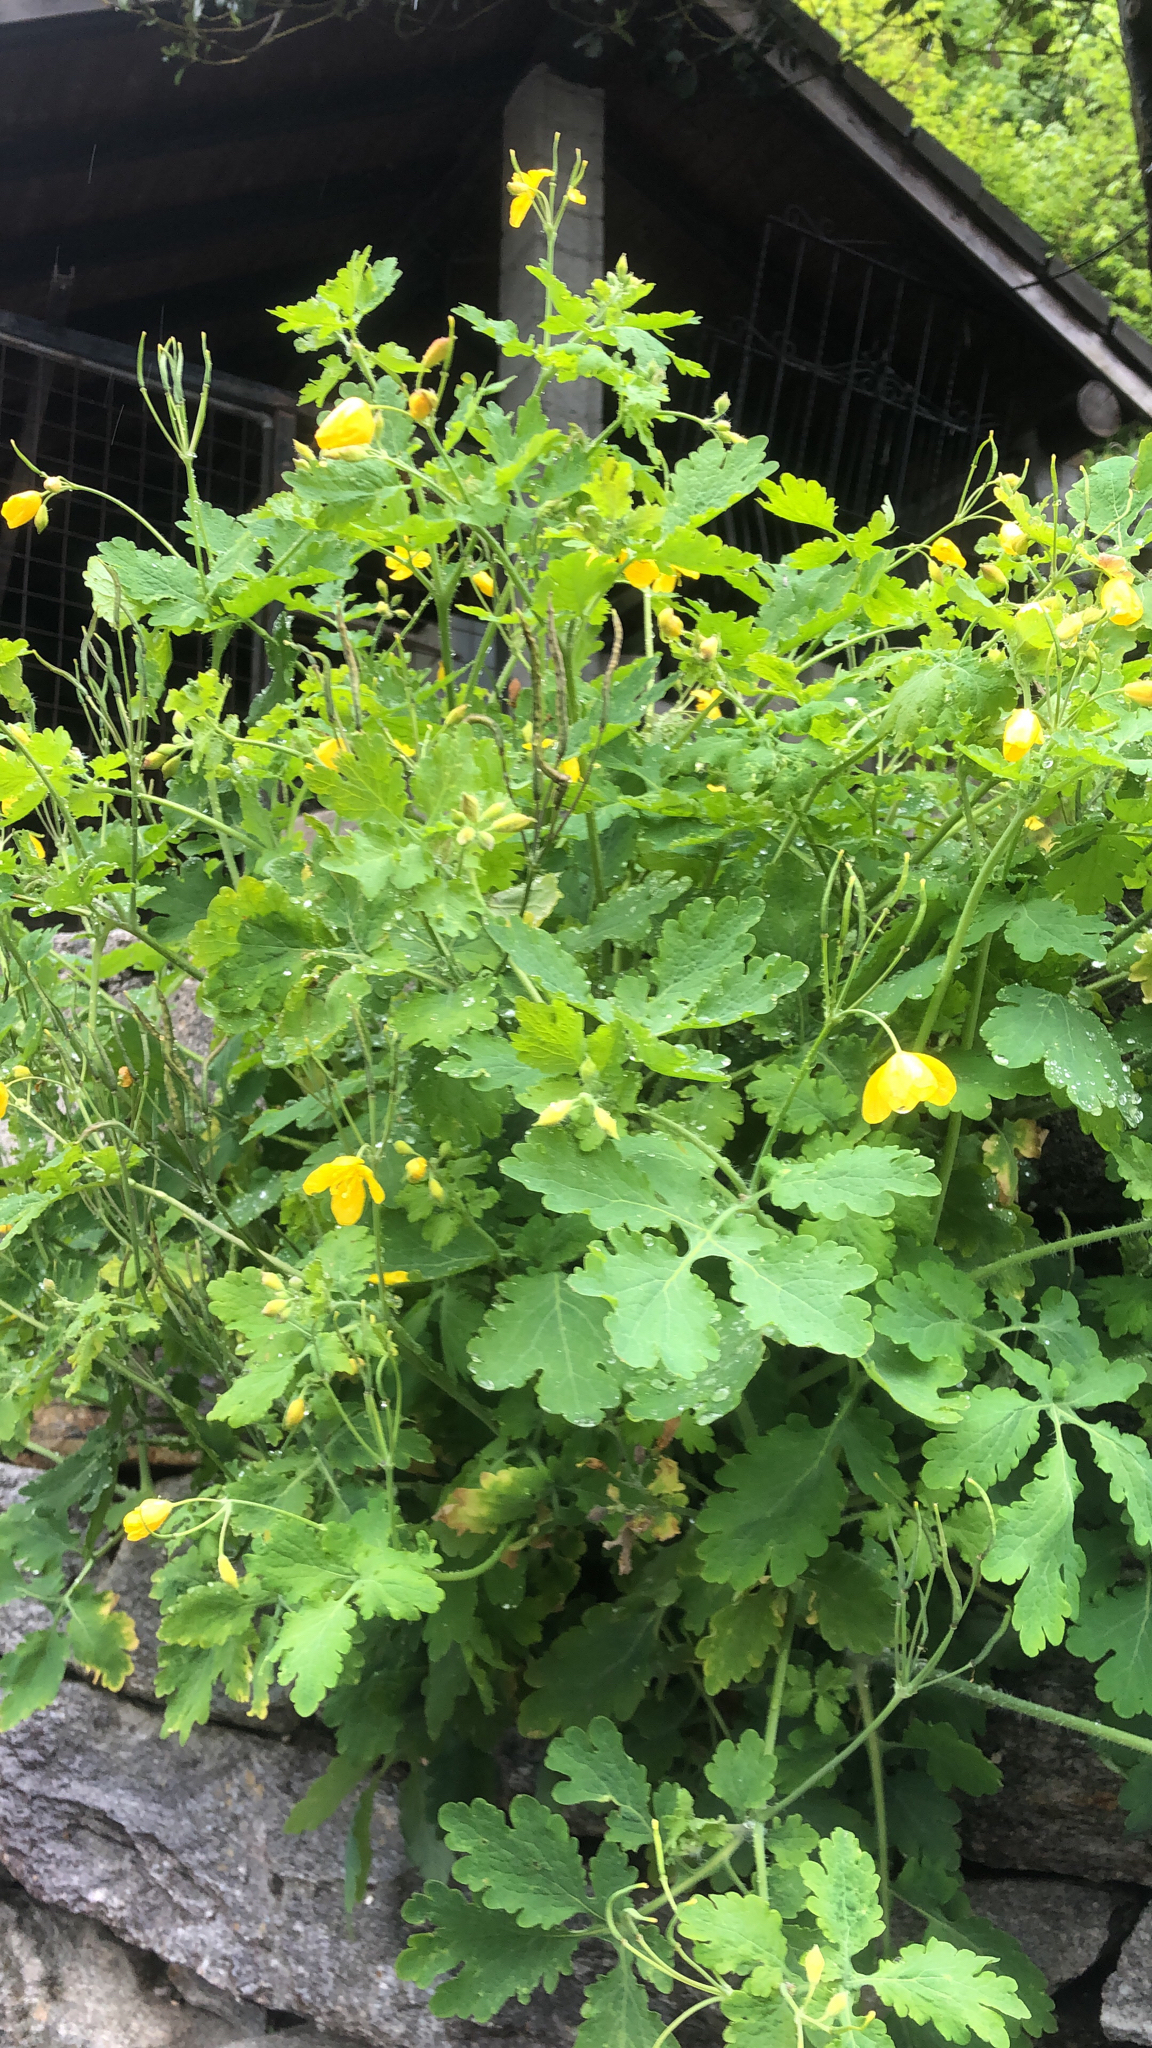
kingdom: Plantae
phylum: Tracheophyta
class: Magnoliopsida
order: Ranunculales
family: Papaveraceae
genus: Chelidonium
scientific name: Chelidonium majus
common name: Greater celandine
